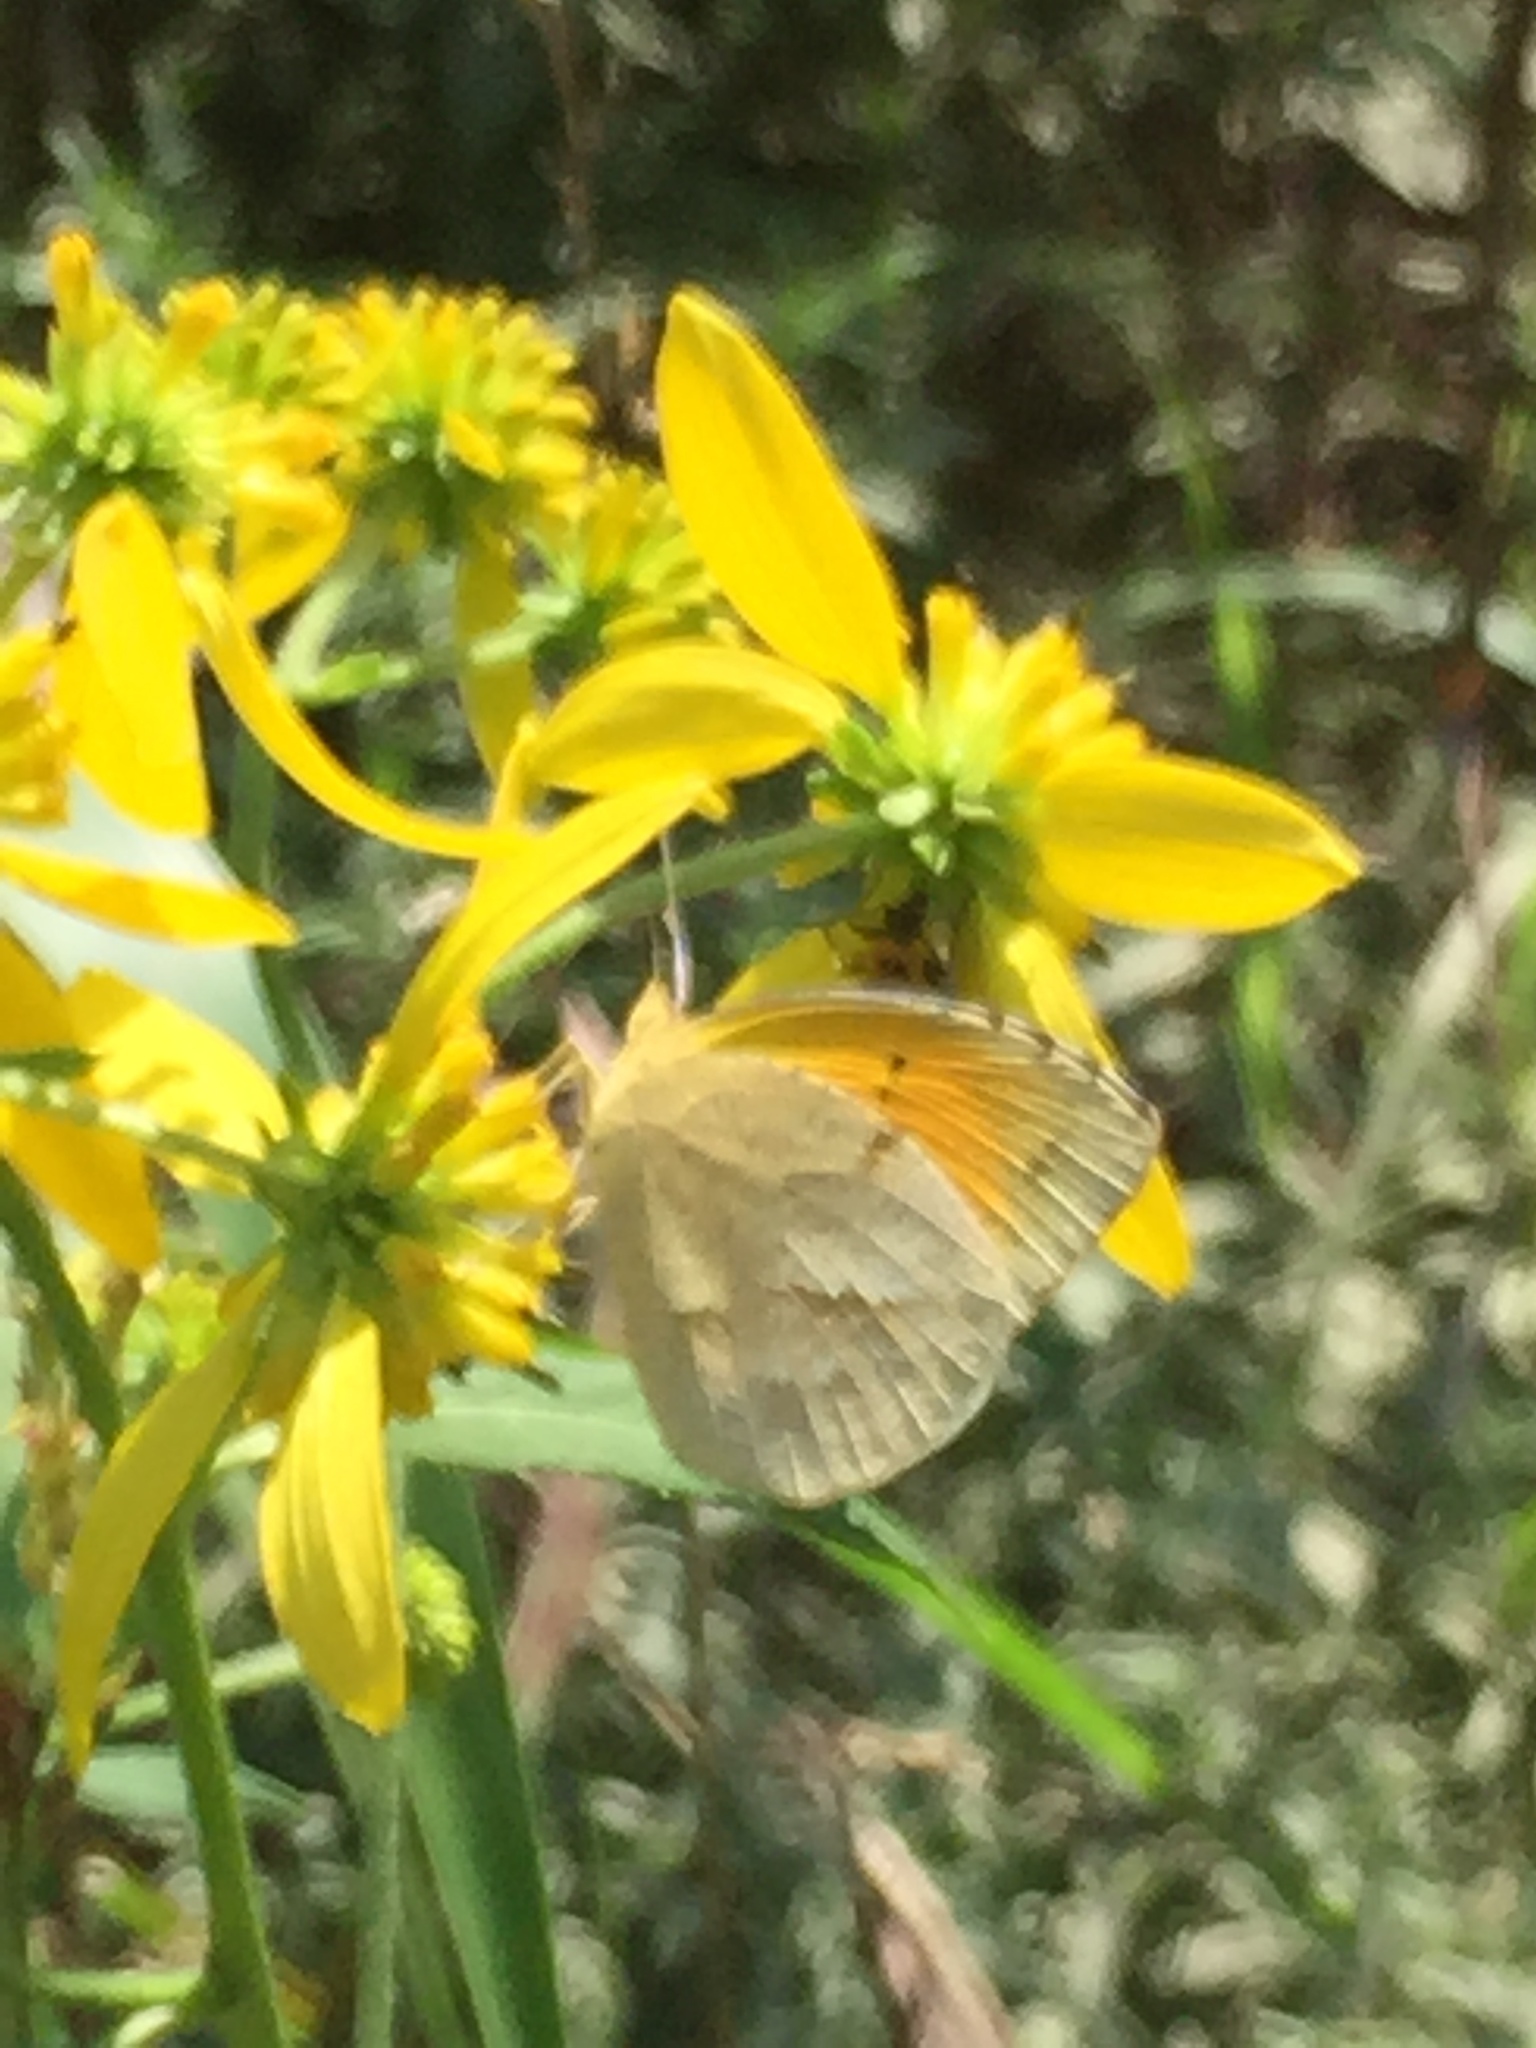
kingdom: Animalia
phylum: Arthropoda
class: Insecta
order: Lepidoptera
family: Pieridae
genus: Abaeis
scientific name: Abaeis nicippe
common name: Sleepy orange
